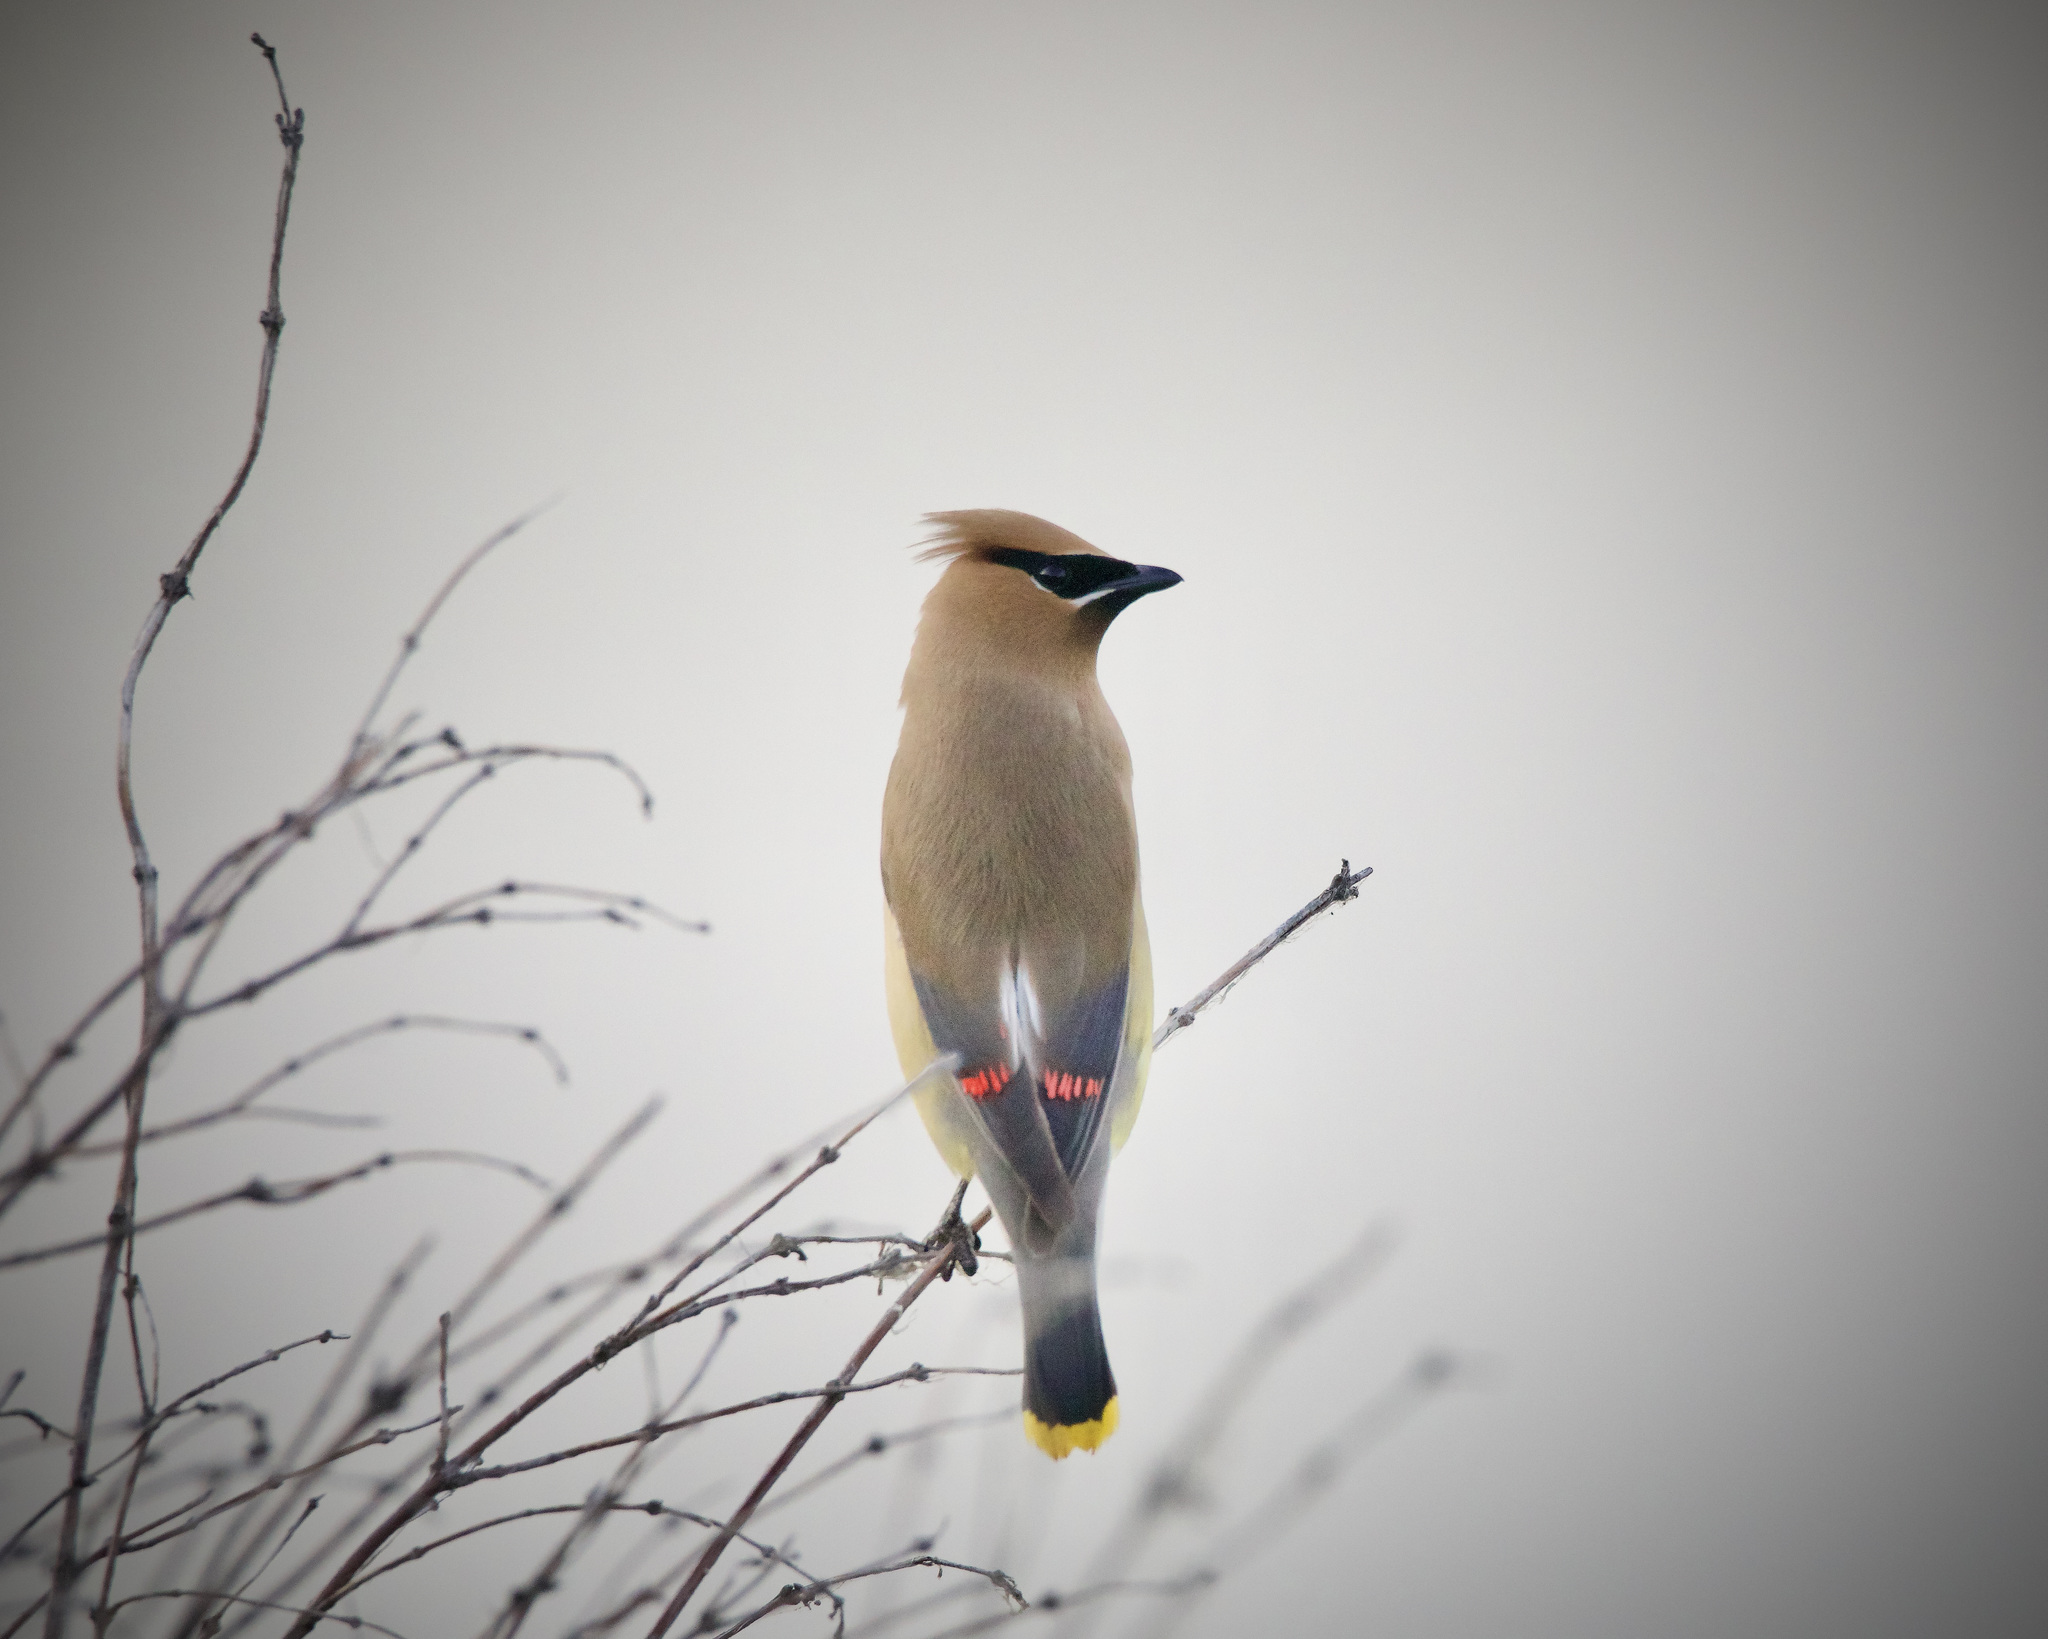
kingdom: Animalia
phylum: Chordata
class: Aves
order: Passeriformes
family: Bombycillidae
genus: Bombycilla
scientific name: Bombycilla cedrorum
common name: Cedar waxwing
